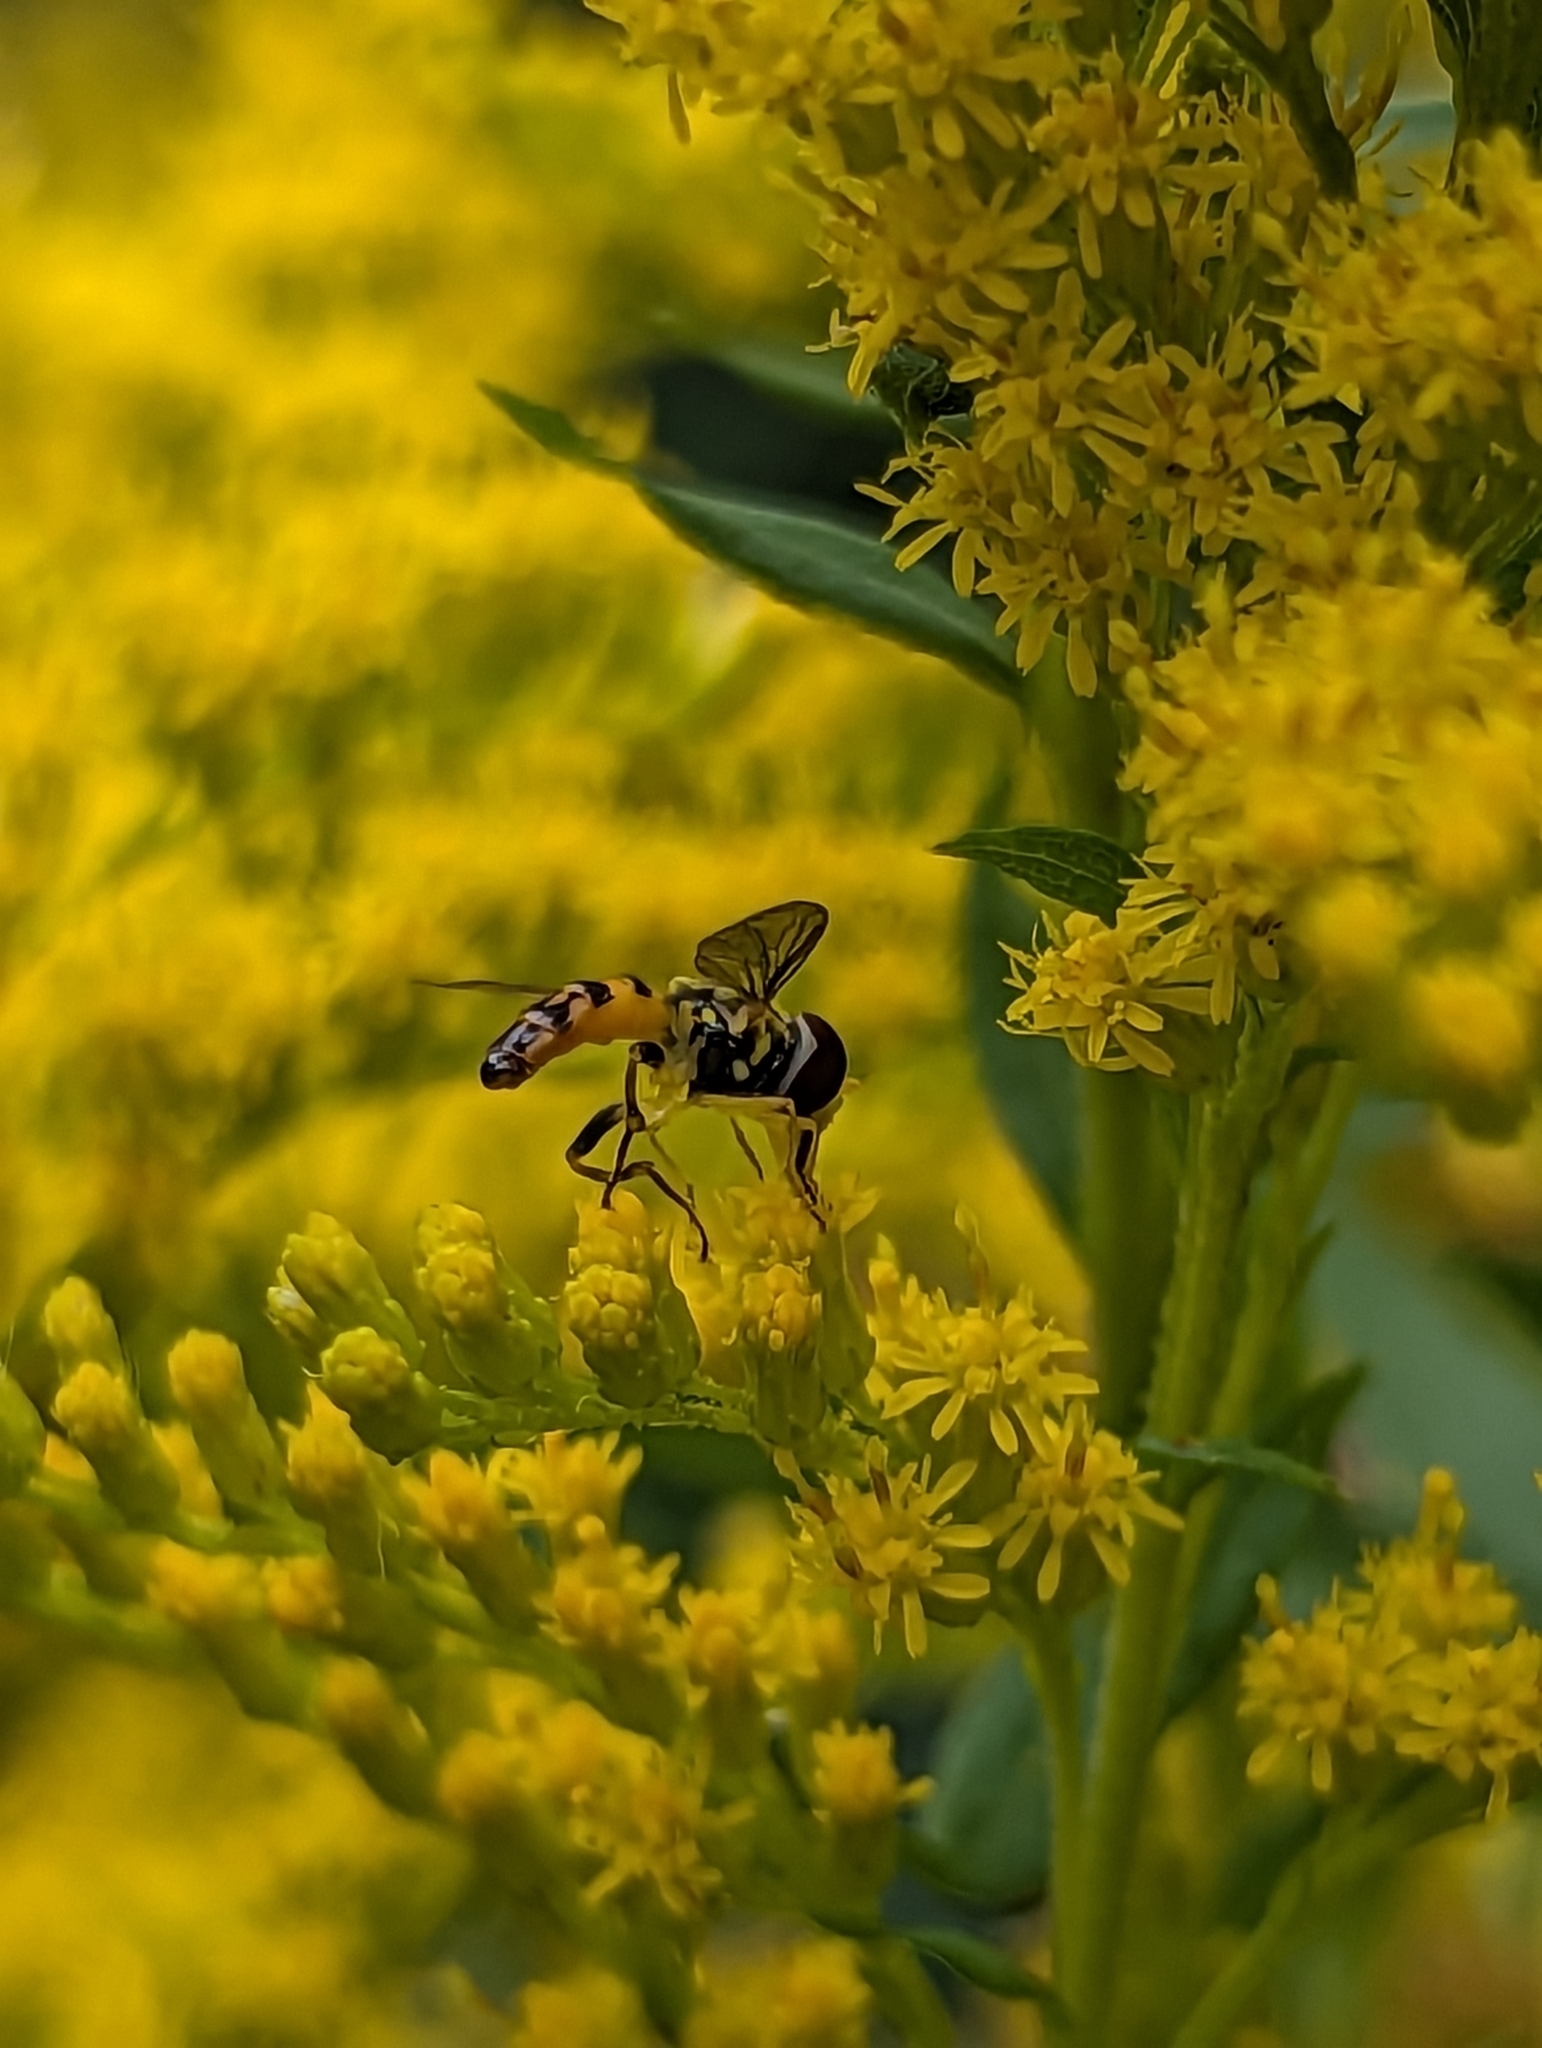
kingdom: Animalia
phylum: Arthropoda
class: Insecta
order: Diptera
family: Syrphidae
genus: Toxomerus
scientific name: Toxomerus geminatus
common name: Eastern calligrapher
